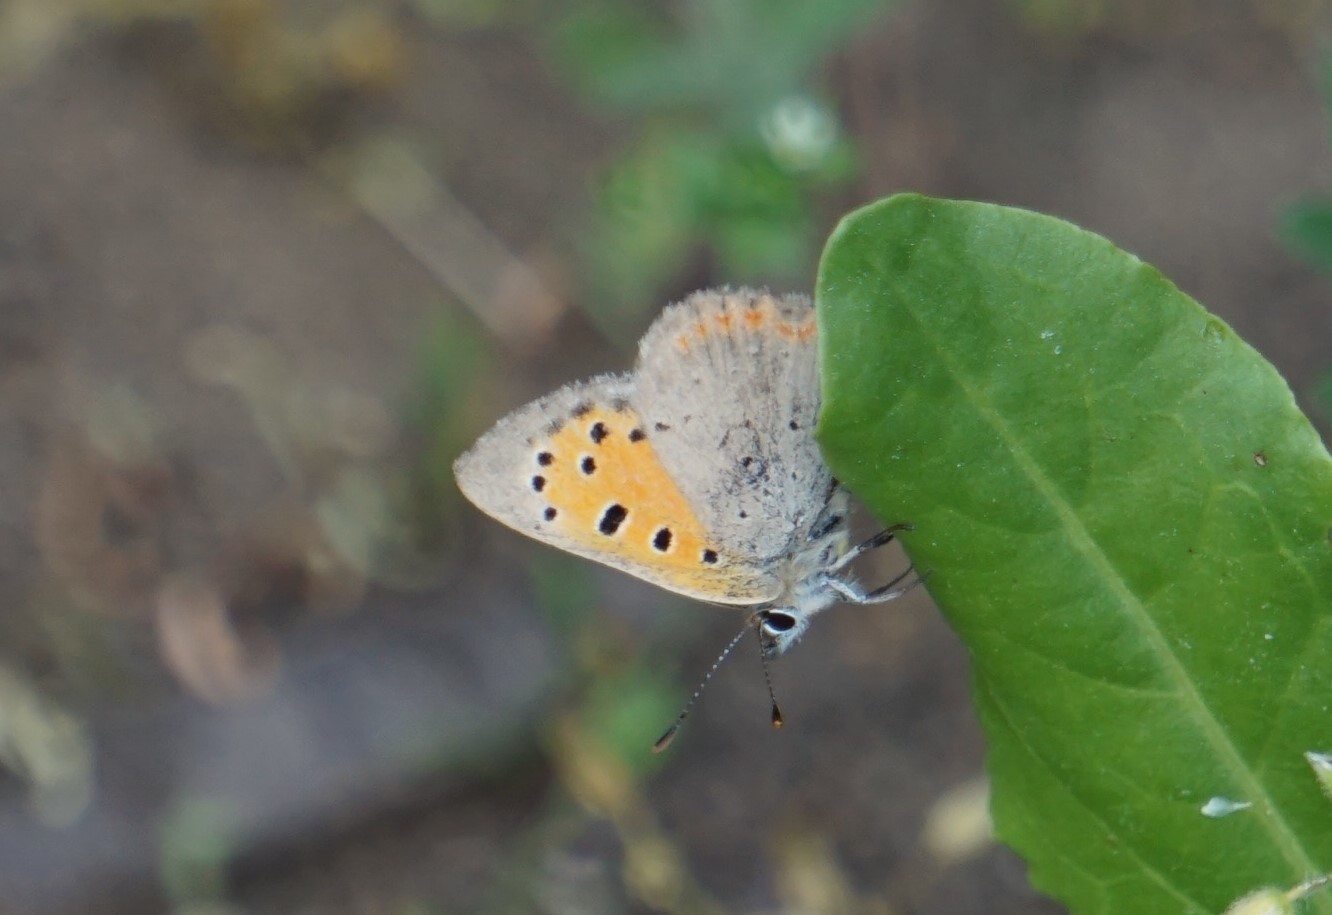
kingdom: Animalia
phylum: Arthropoda
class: Insecta
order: Lepidoptera
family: Lycaenidae
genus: Lycaena
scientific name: Lycaena phlaeas
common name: Small copper
